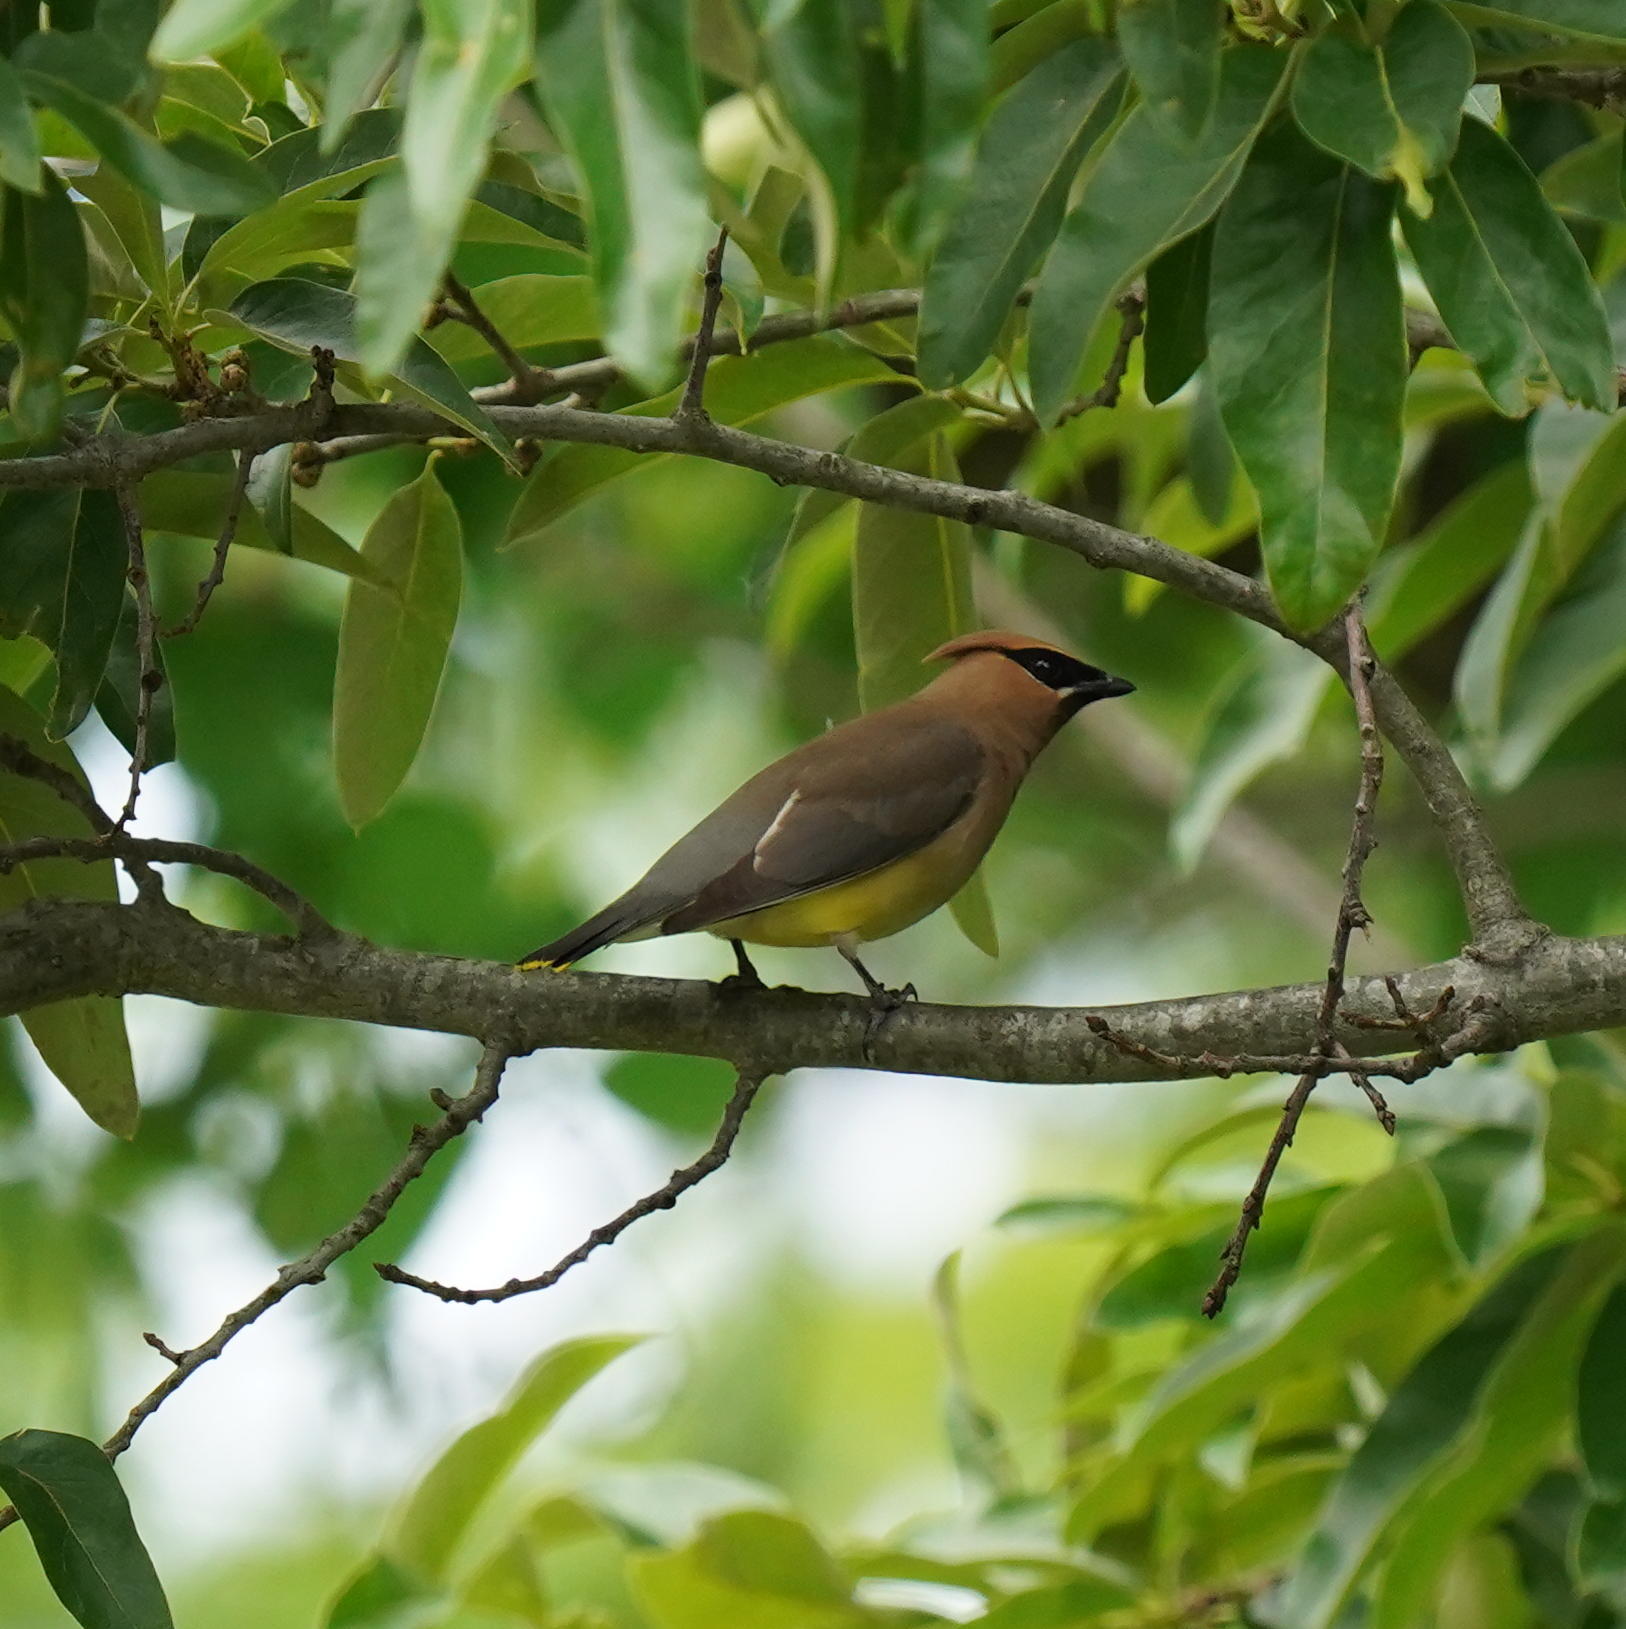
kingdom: Animalia
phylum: Chordata
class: Aves
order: Passeriformes
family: Bombycillidae
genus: Bombycilla
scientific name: Bombycilla cedrorum
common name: Cedar waxwing
